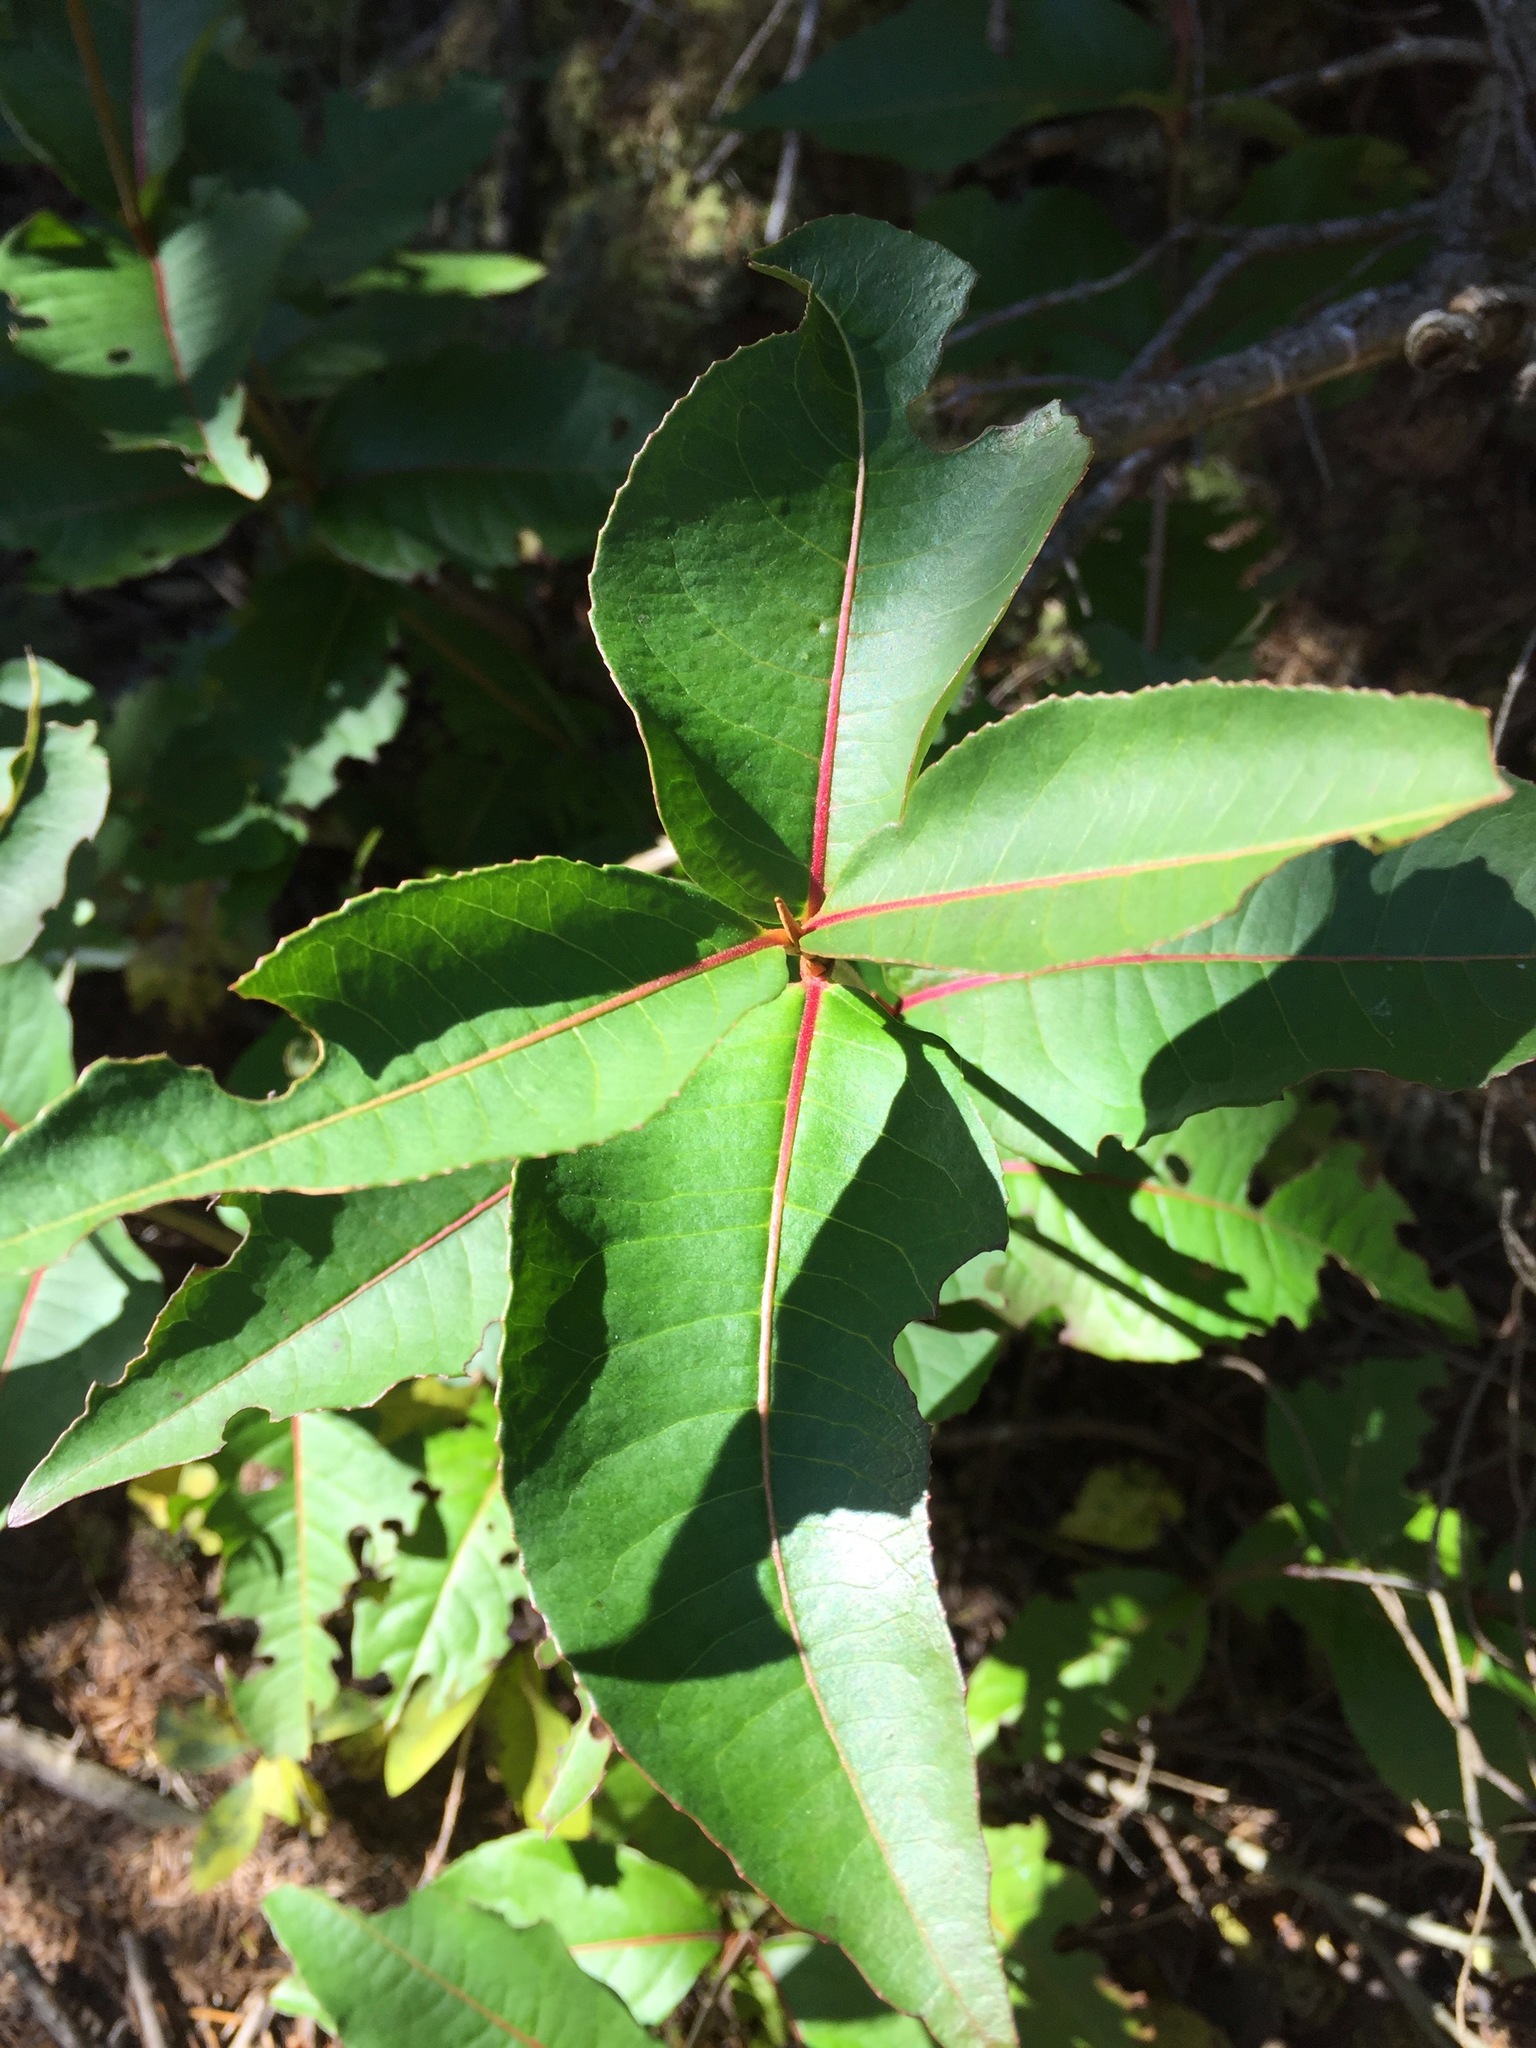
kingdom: Plantae
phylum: Tracheophyta
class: Magnoliopsida
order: Dipsacales
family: Viburnaceae
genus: Viburnum
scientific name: Viburnum cassinoides
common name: Swamp haw
